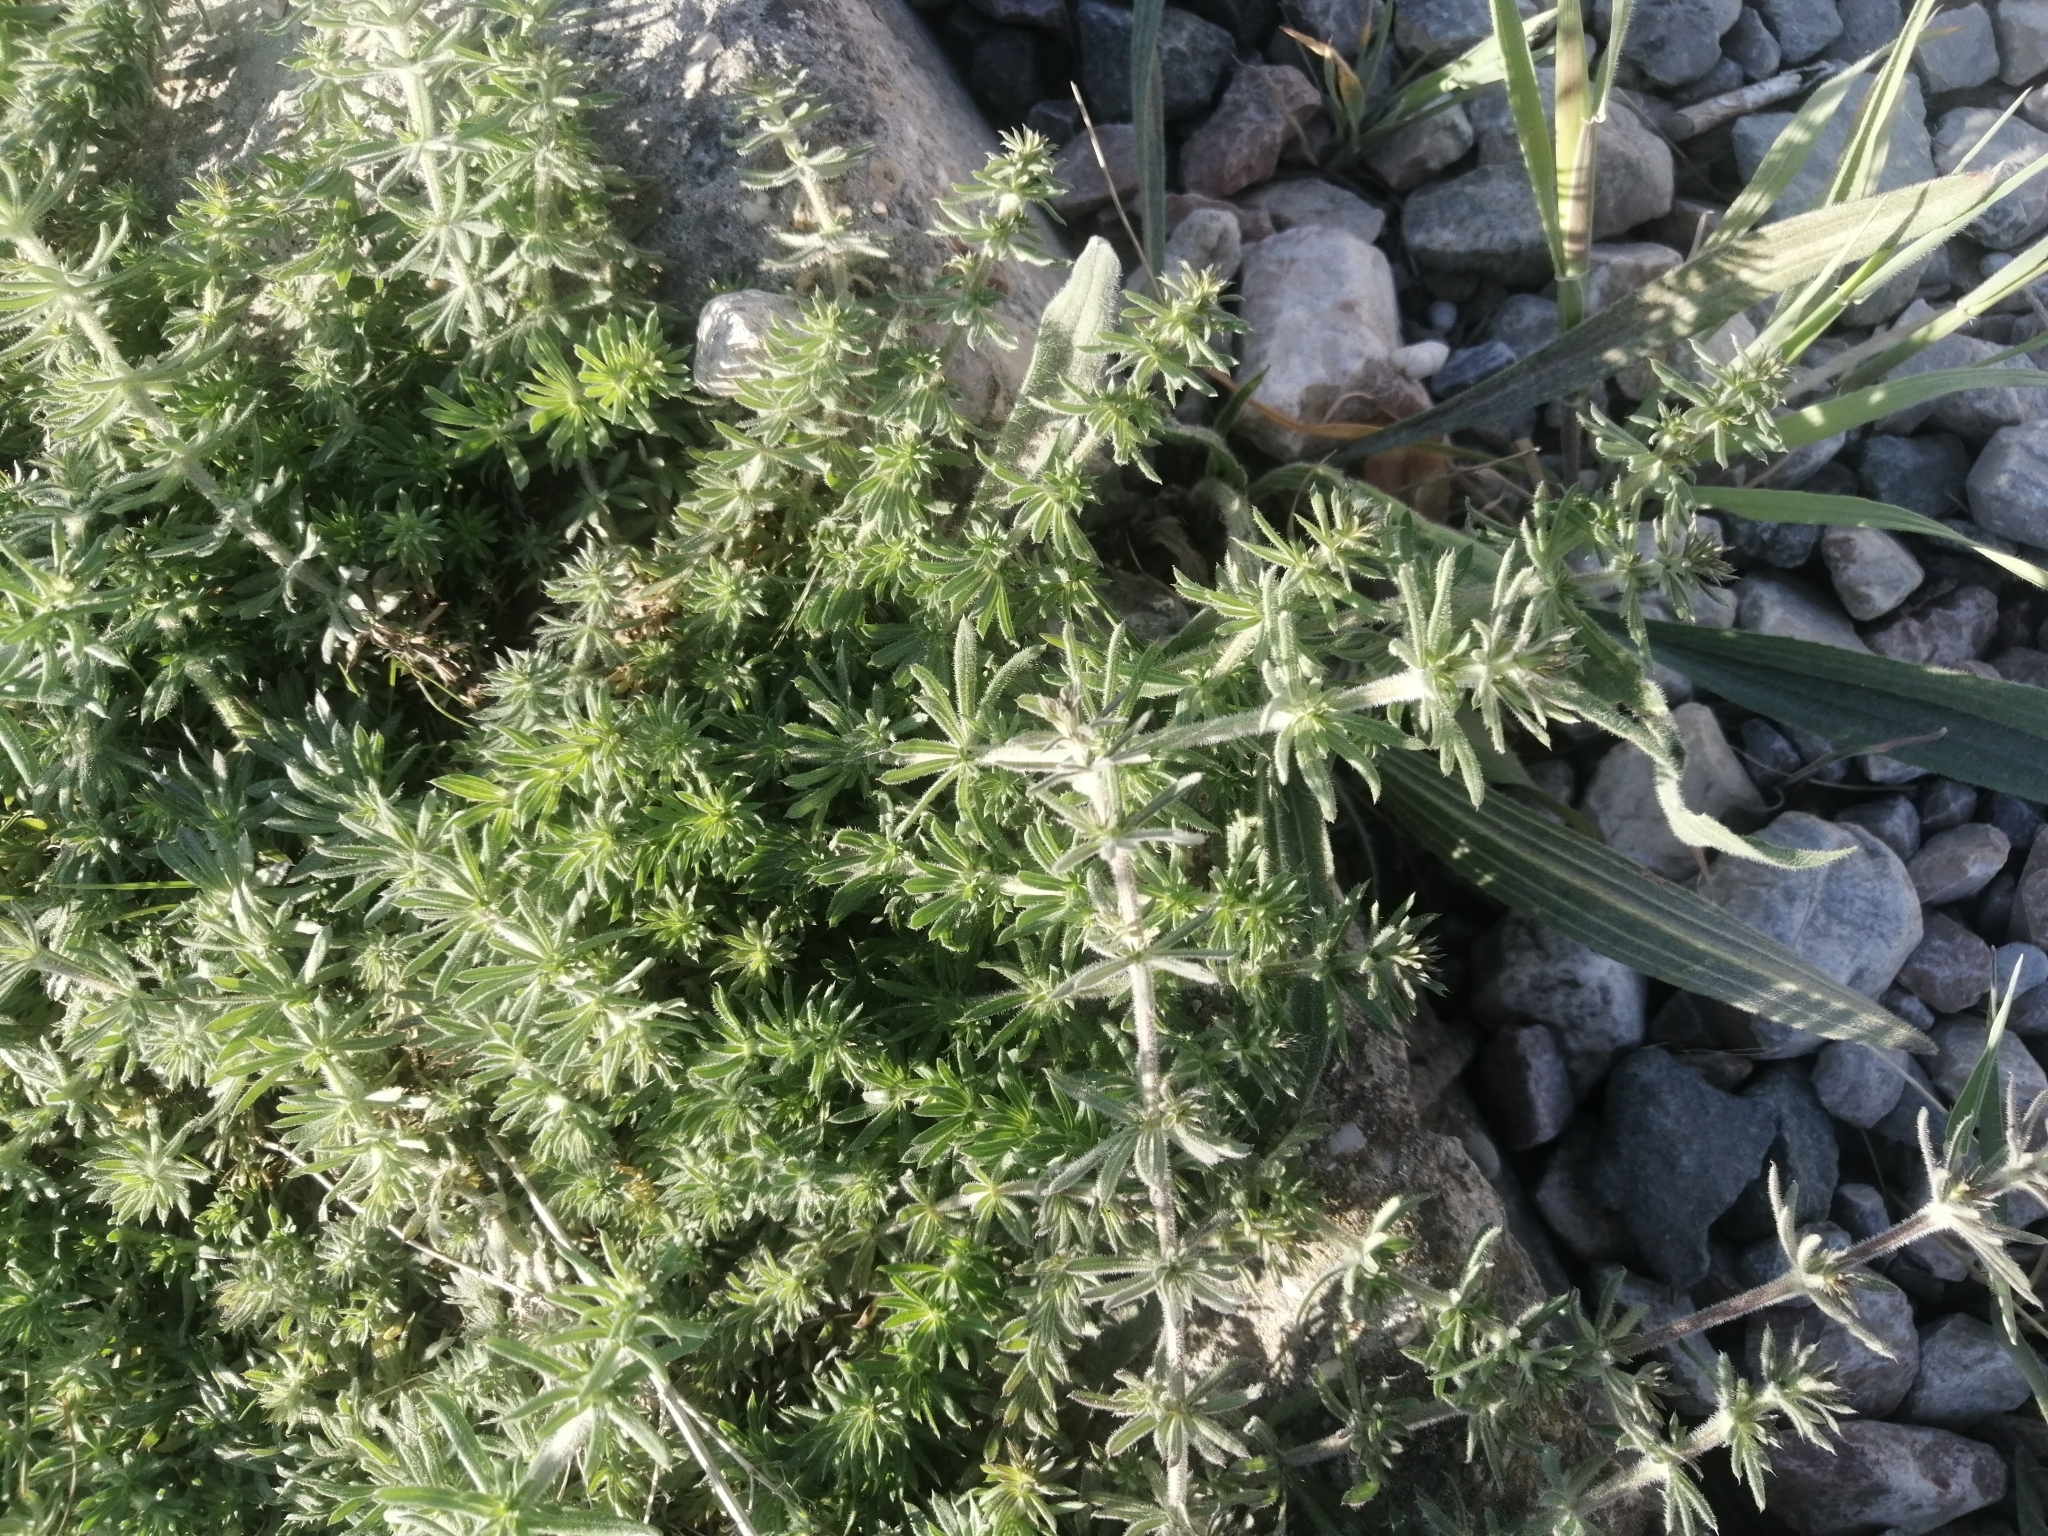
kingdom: Plantae
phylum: Tracheophyta
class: Magnoliopsida
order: Gentianales
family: Rubiaceae
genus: Galium
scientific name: Galium humifusum
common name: Spreading bedstraw
